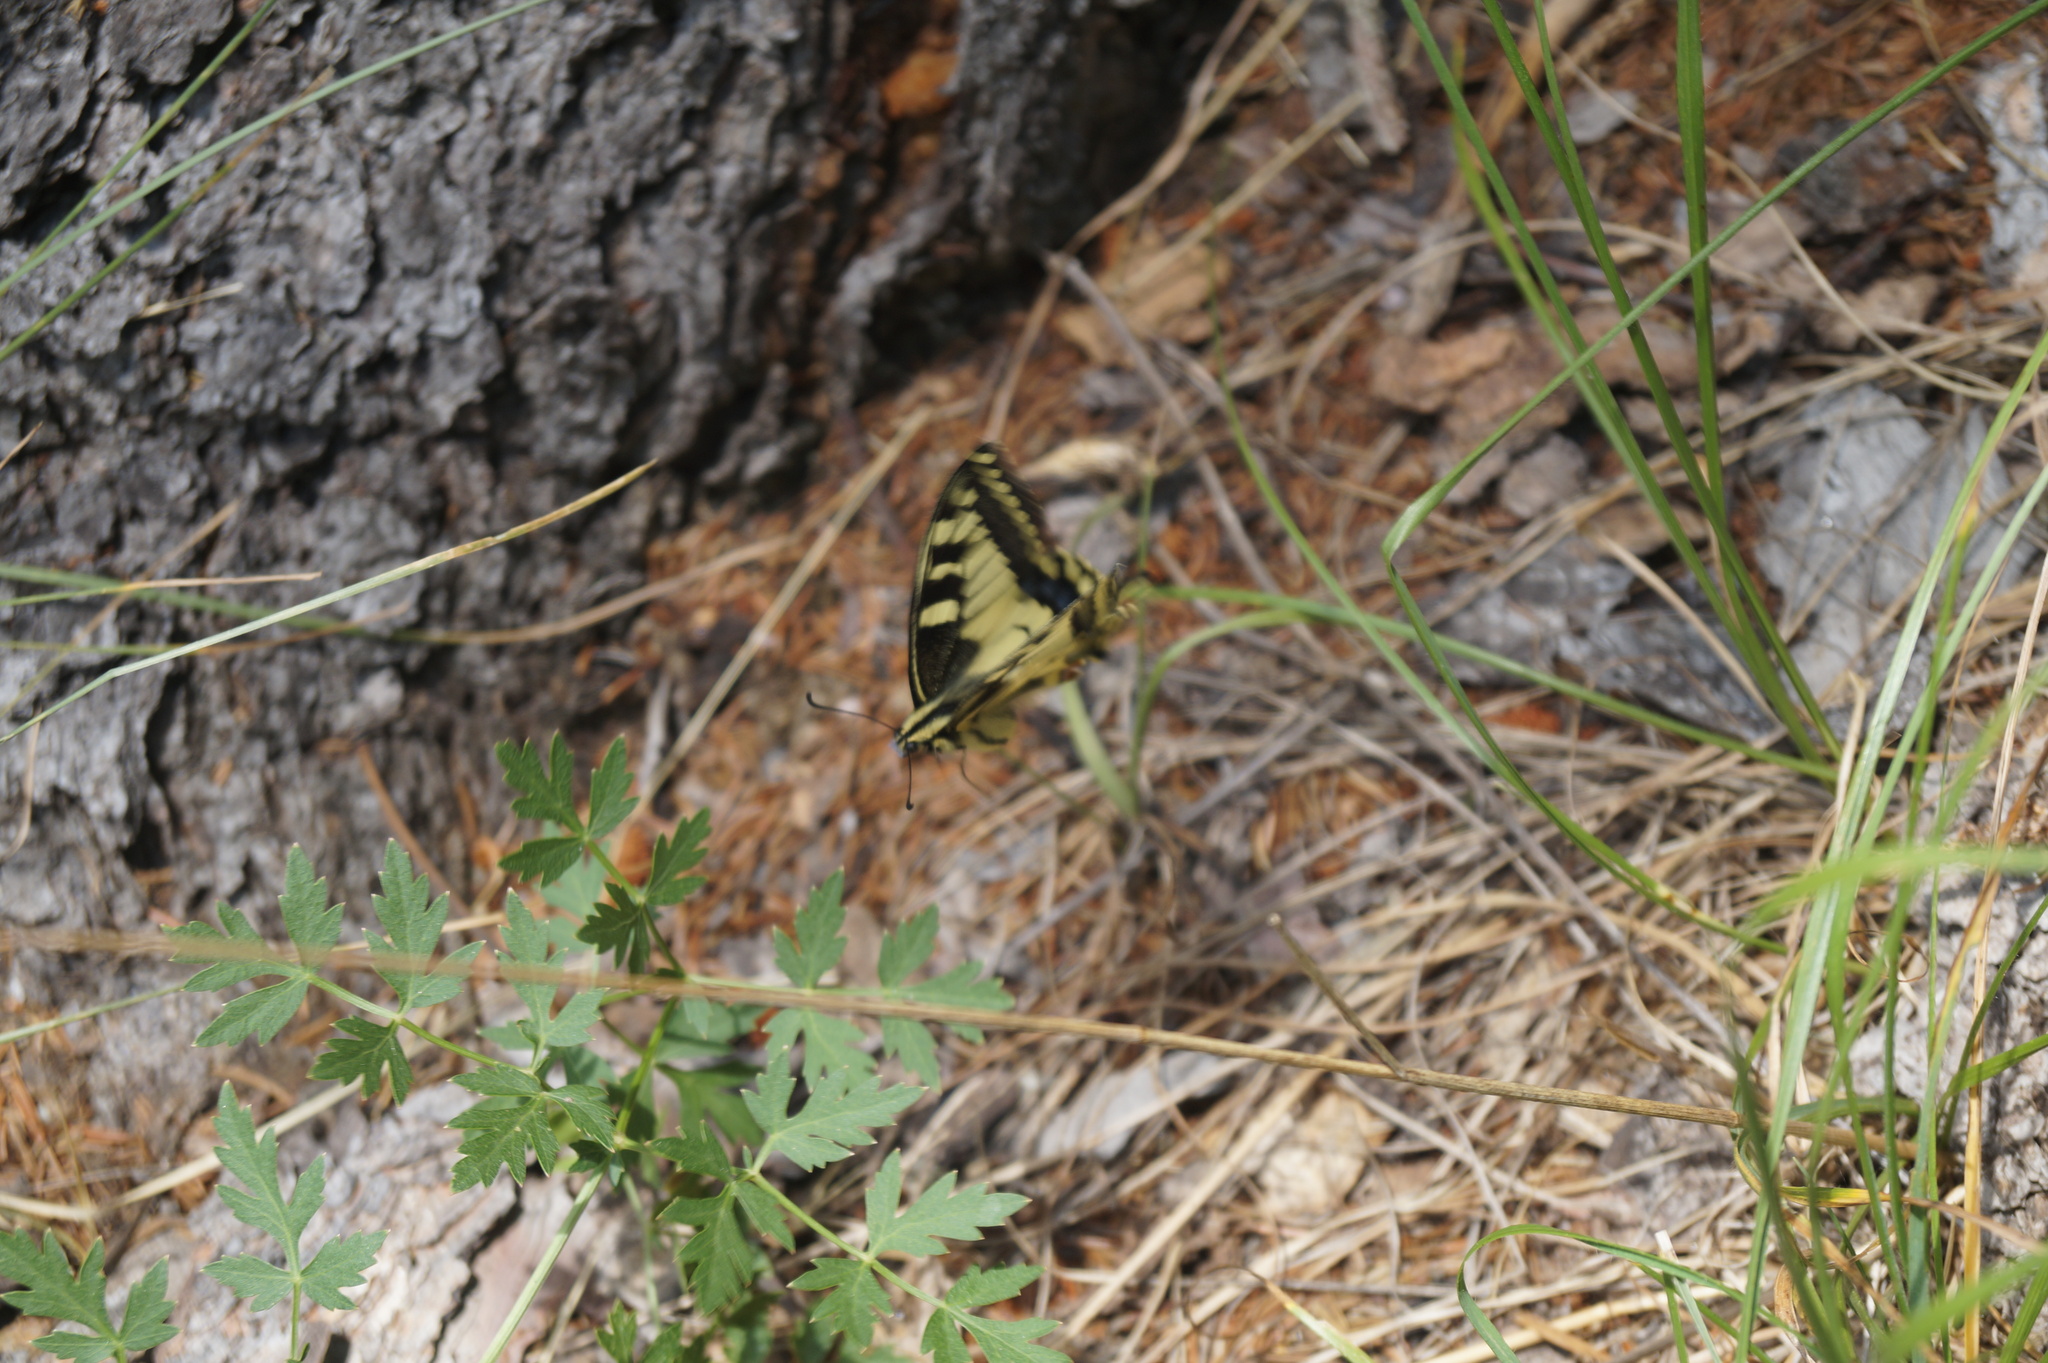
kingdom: Animalia
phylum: Arthropoda
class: Insecta
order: Lepidoptera
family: Papilionidae
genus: Papilio
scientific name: Papilio machaon
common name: Swallowtail
